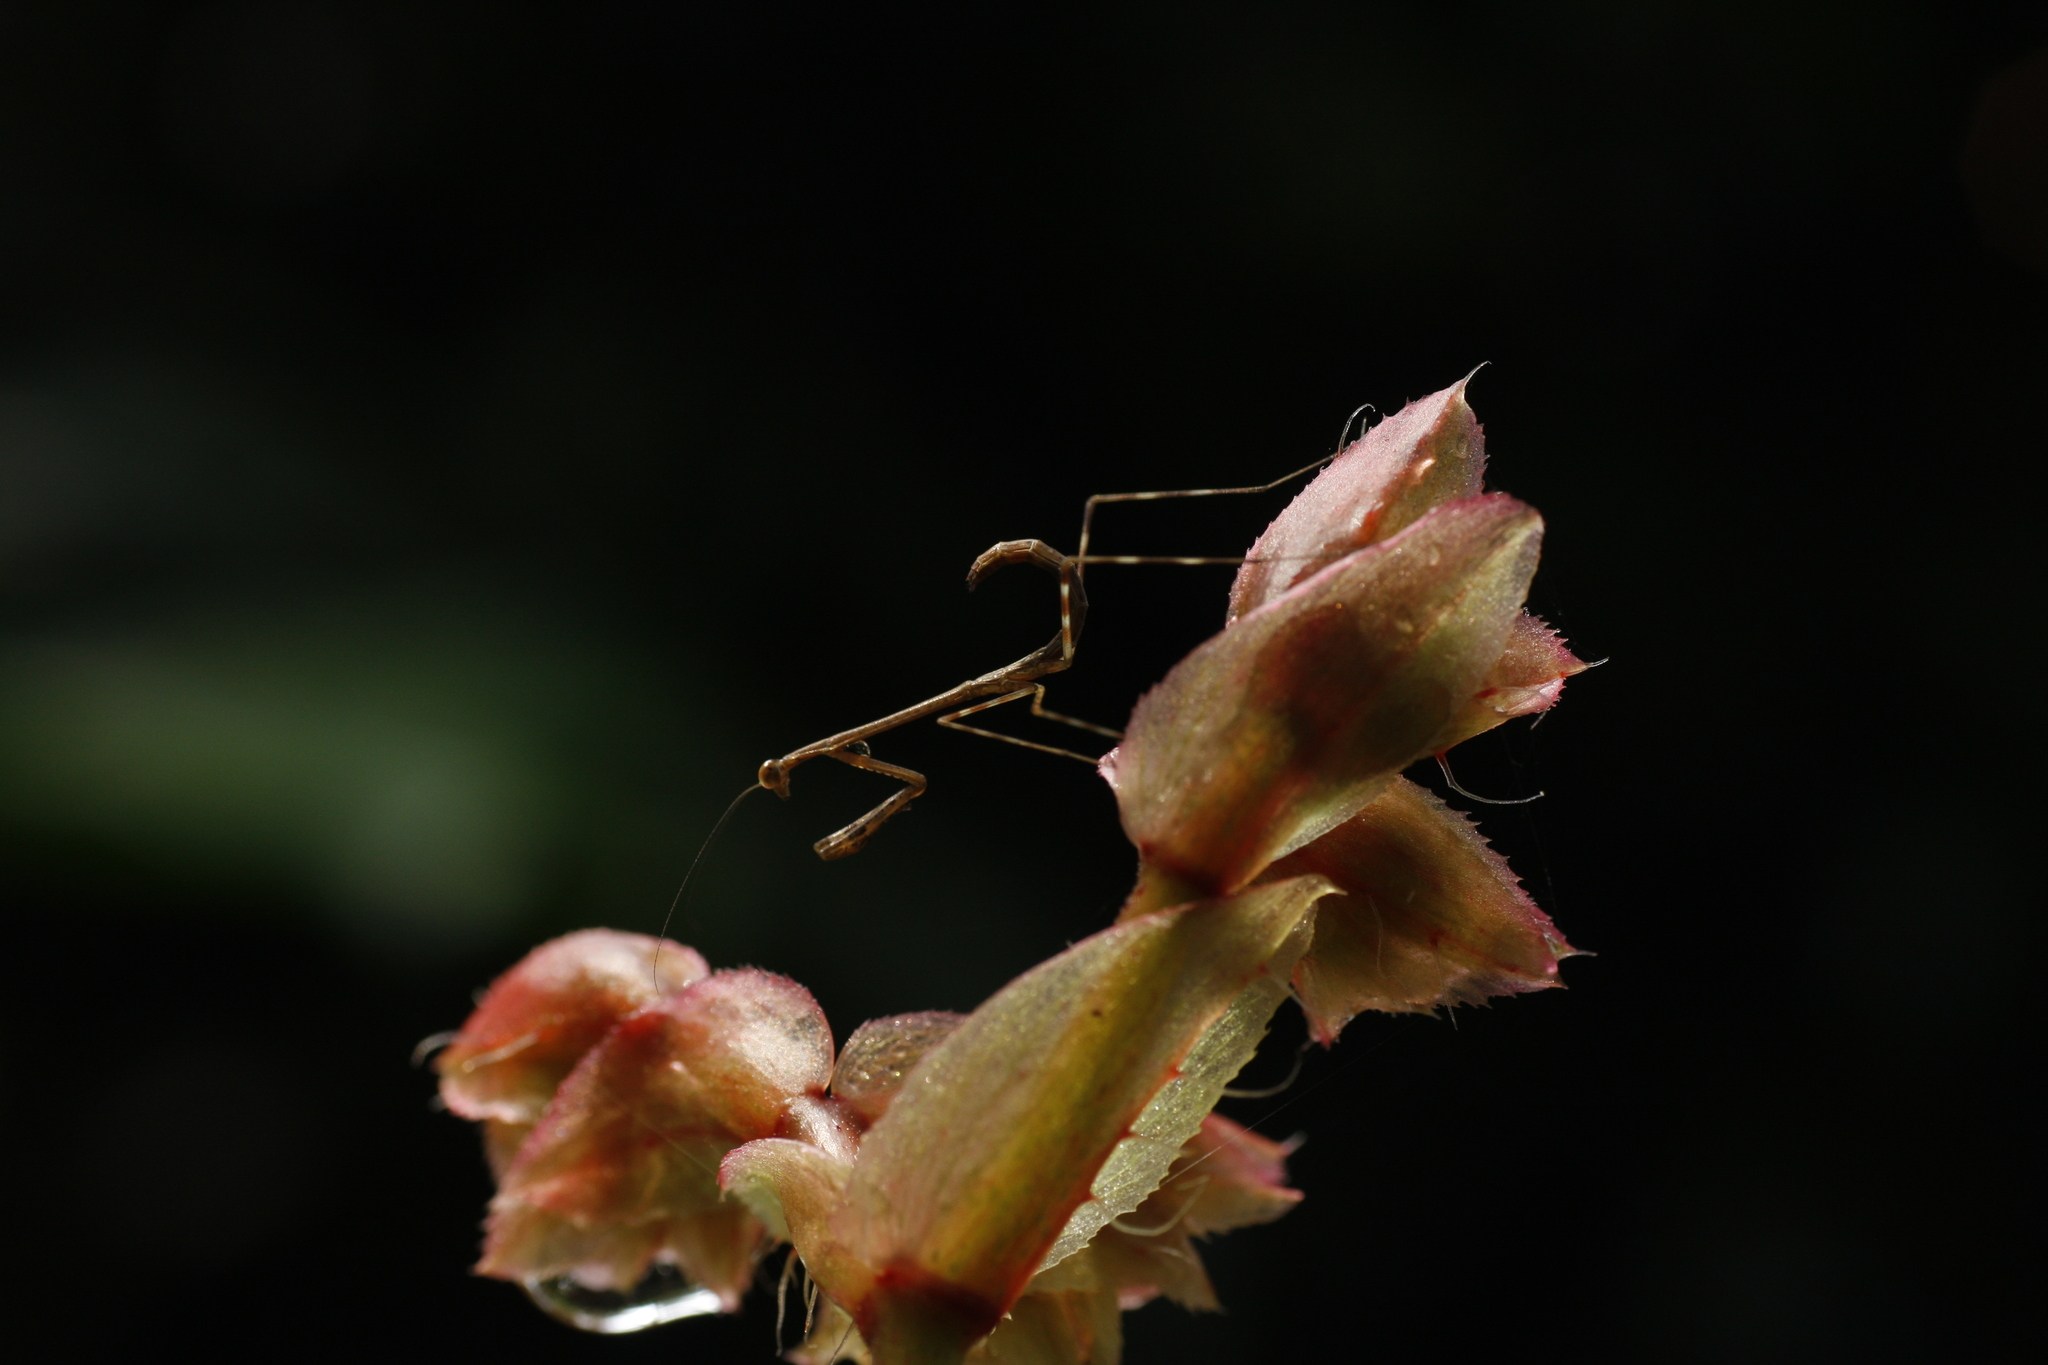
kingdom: Animalia
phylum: Arthropoda
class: Insecta
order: Mantodea
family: Deroplatyidae
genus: Indomenella
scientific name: Indomenella indica
